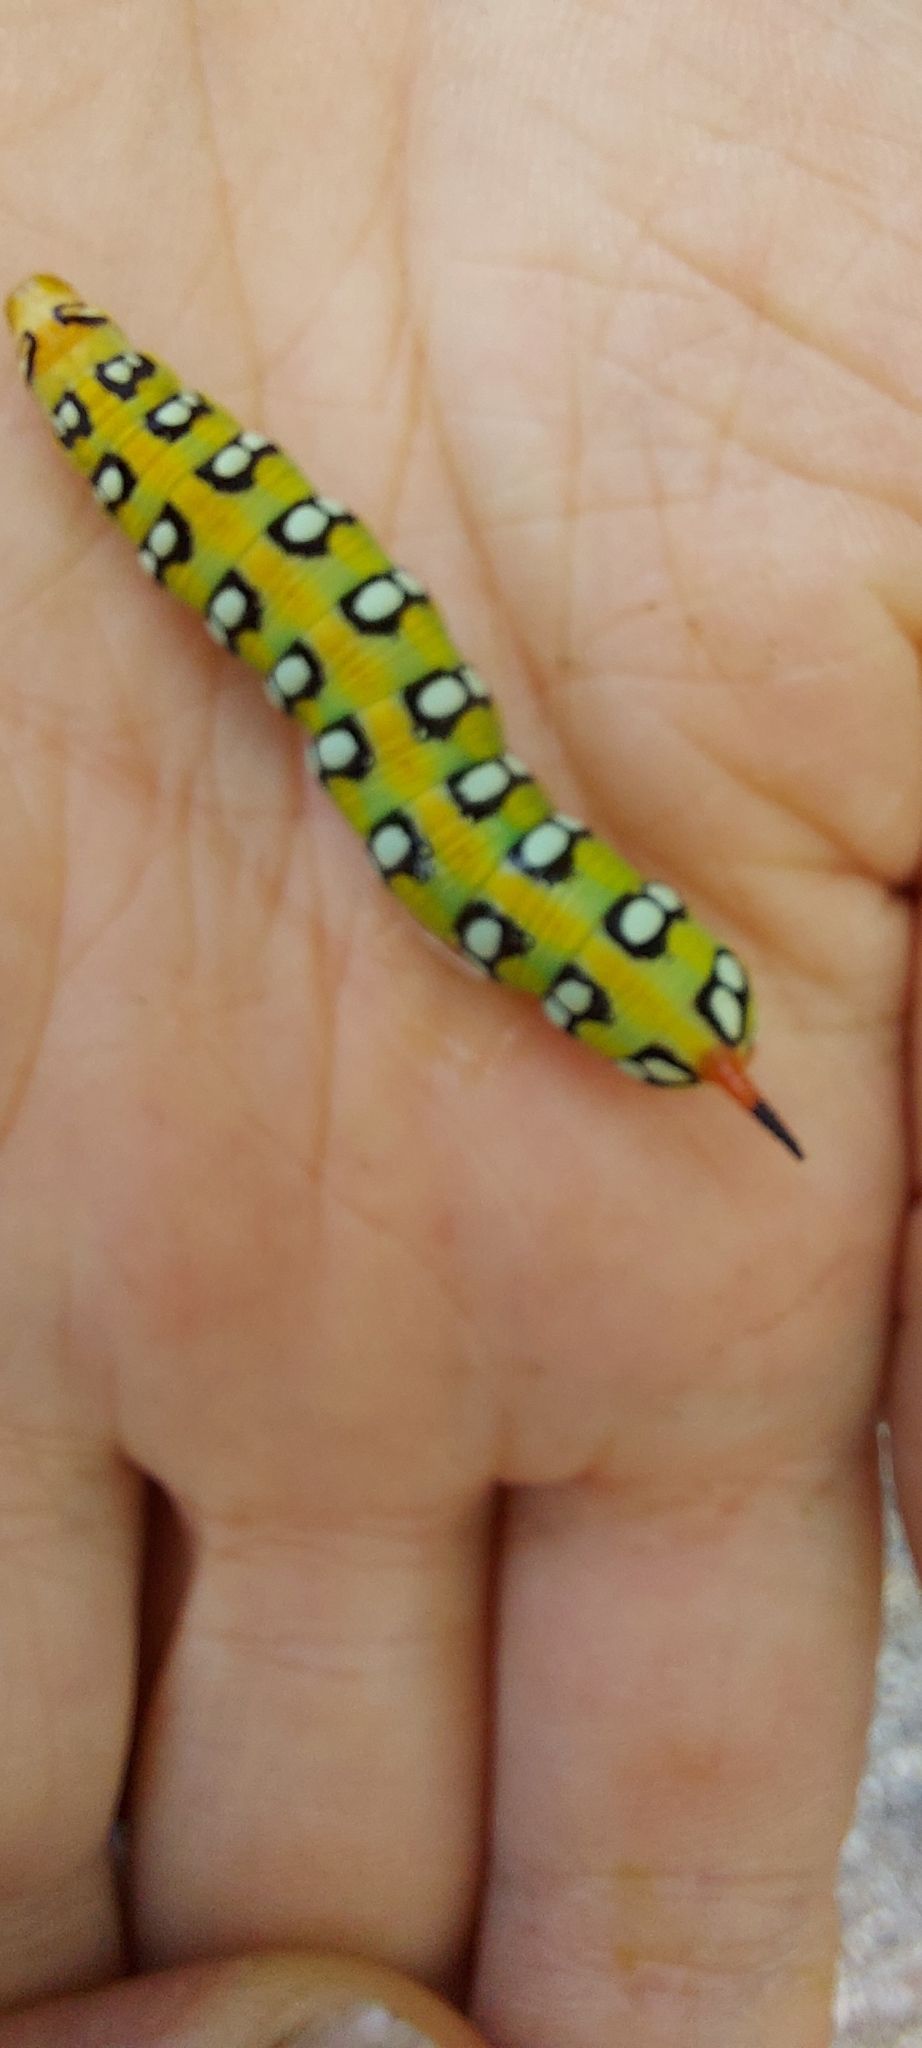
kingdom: Animalia
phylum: Arthropoda
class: Insecta
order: Lepidoptera
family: Sphingidae
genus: Hyles
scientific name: Hyles euphorbiae
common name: Spurge hawk-moth
